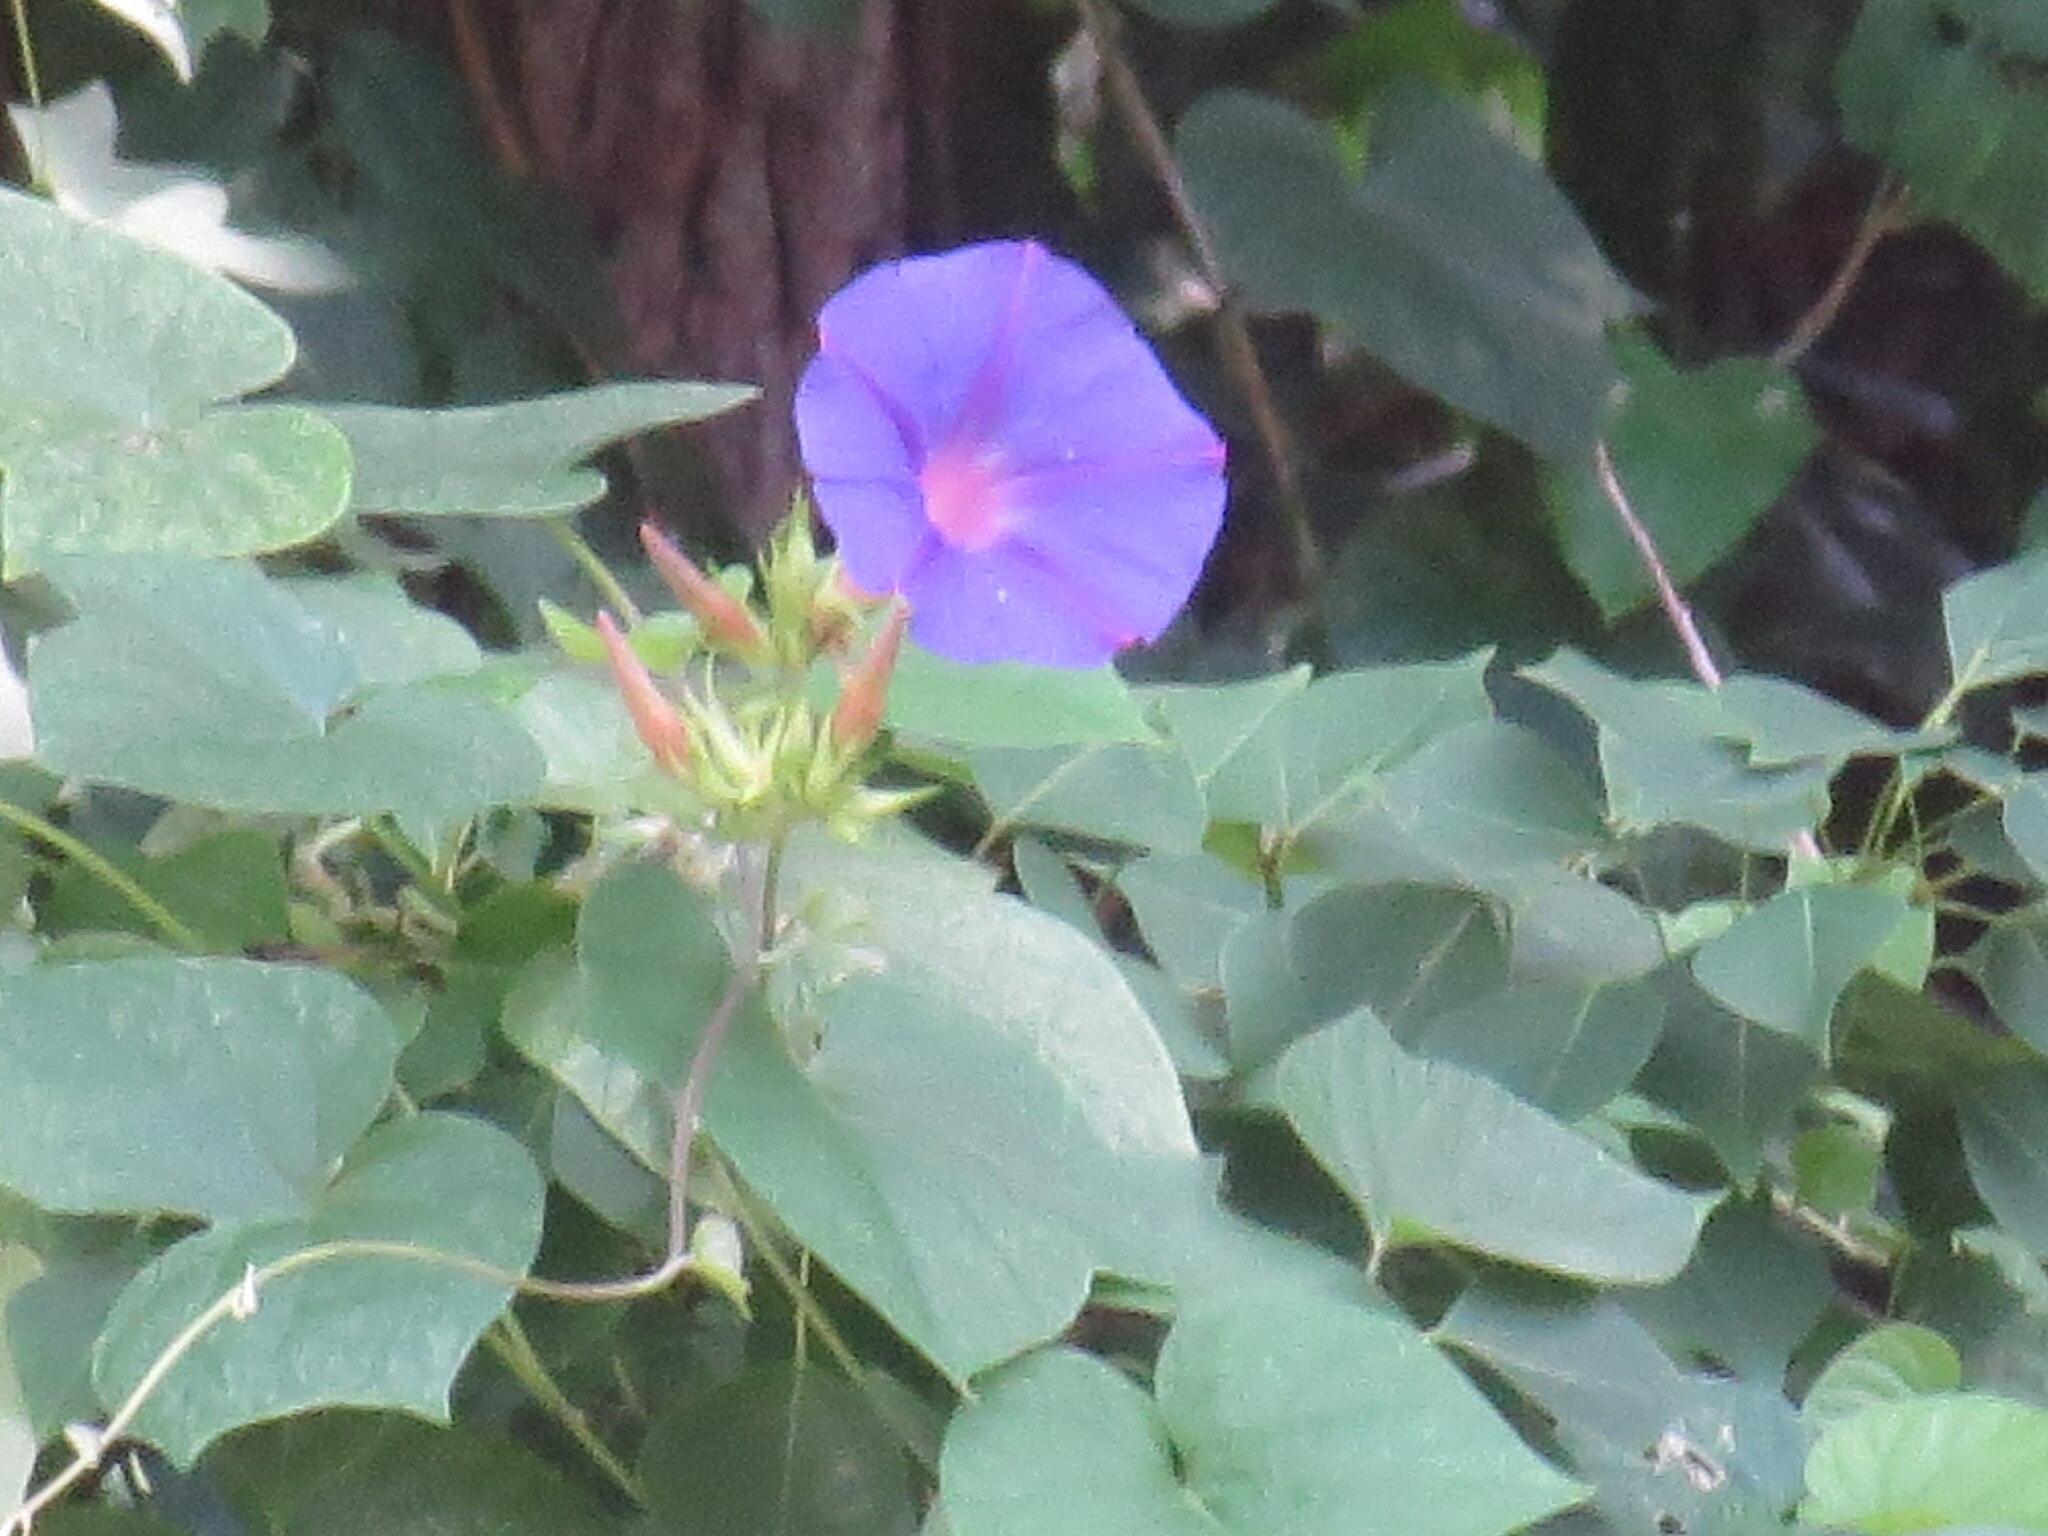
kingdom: Plantae
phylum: Tracheophyta
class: Magnoliopsida
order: Solanales
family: Convolvulaceae
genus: Ipomoea
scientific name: Ipomoea indica
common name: Blue dawnflower
